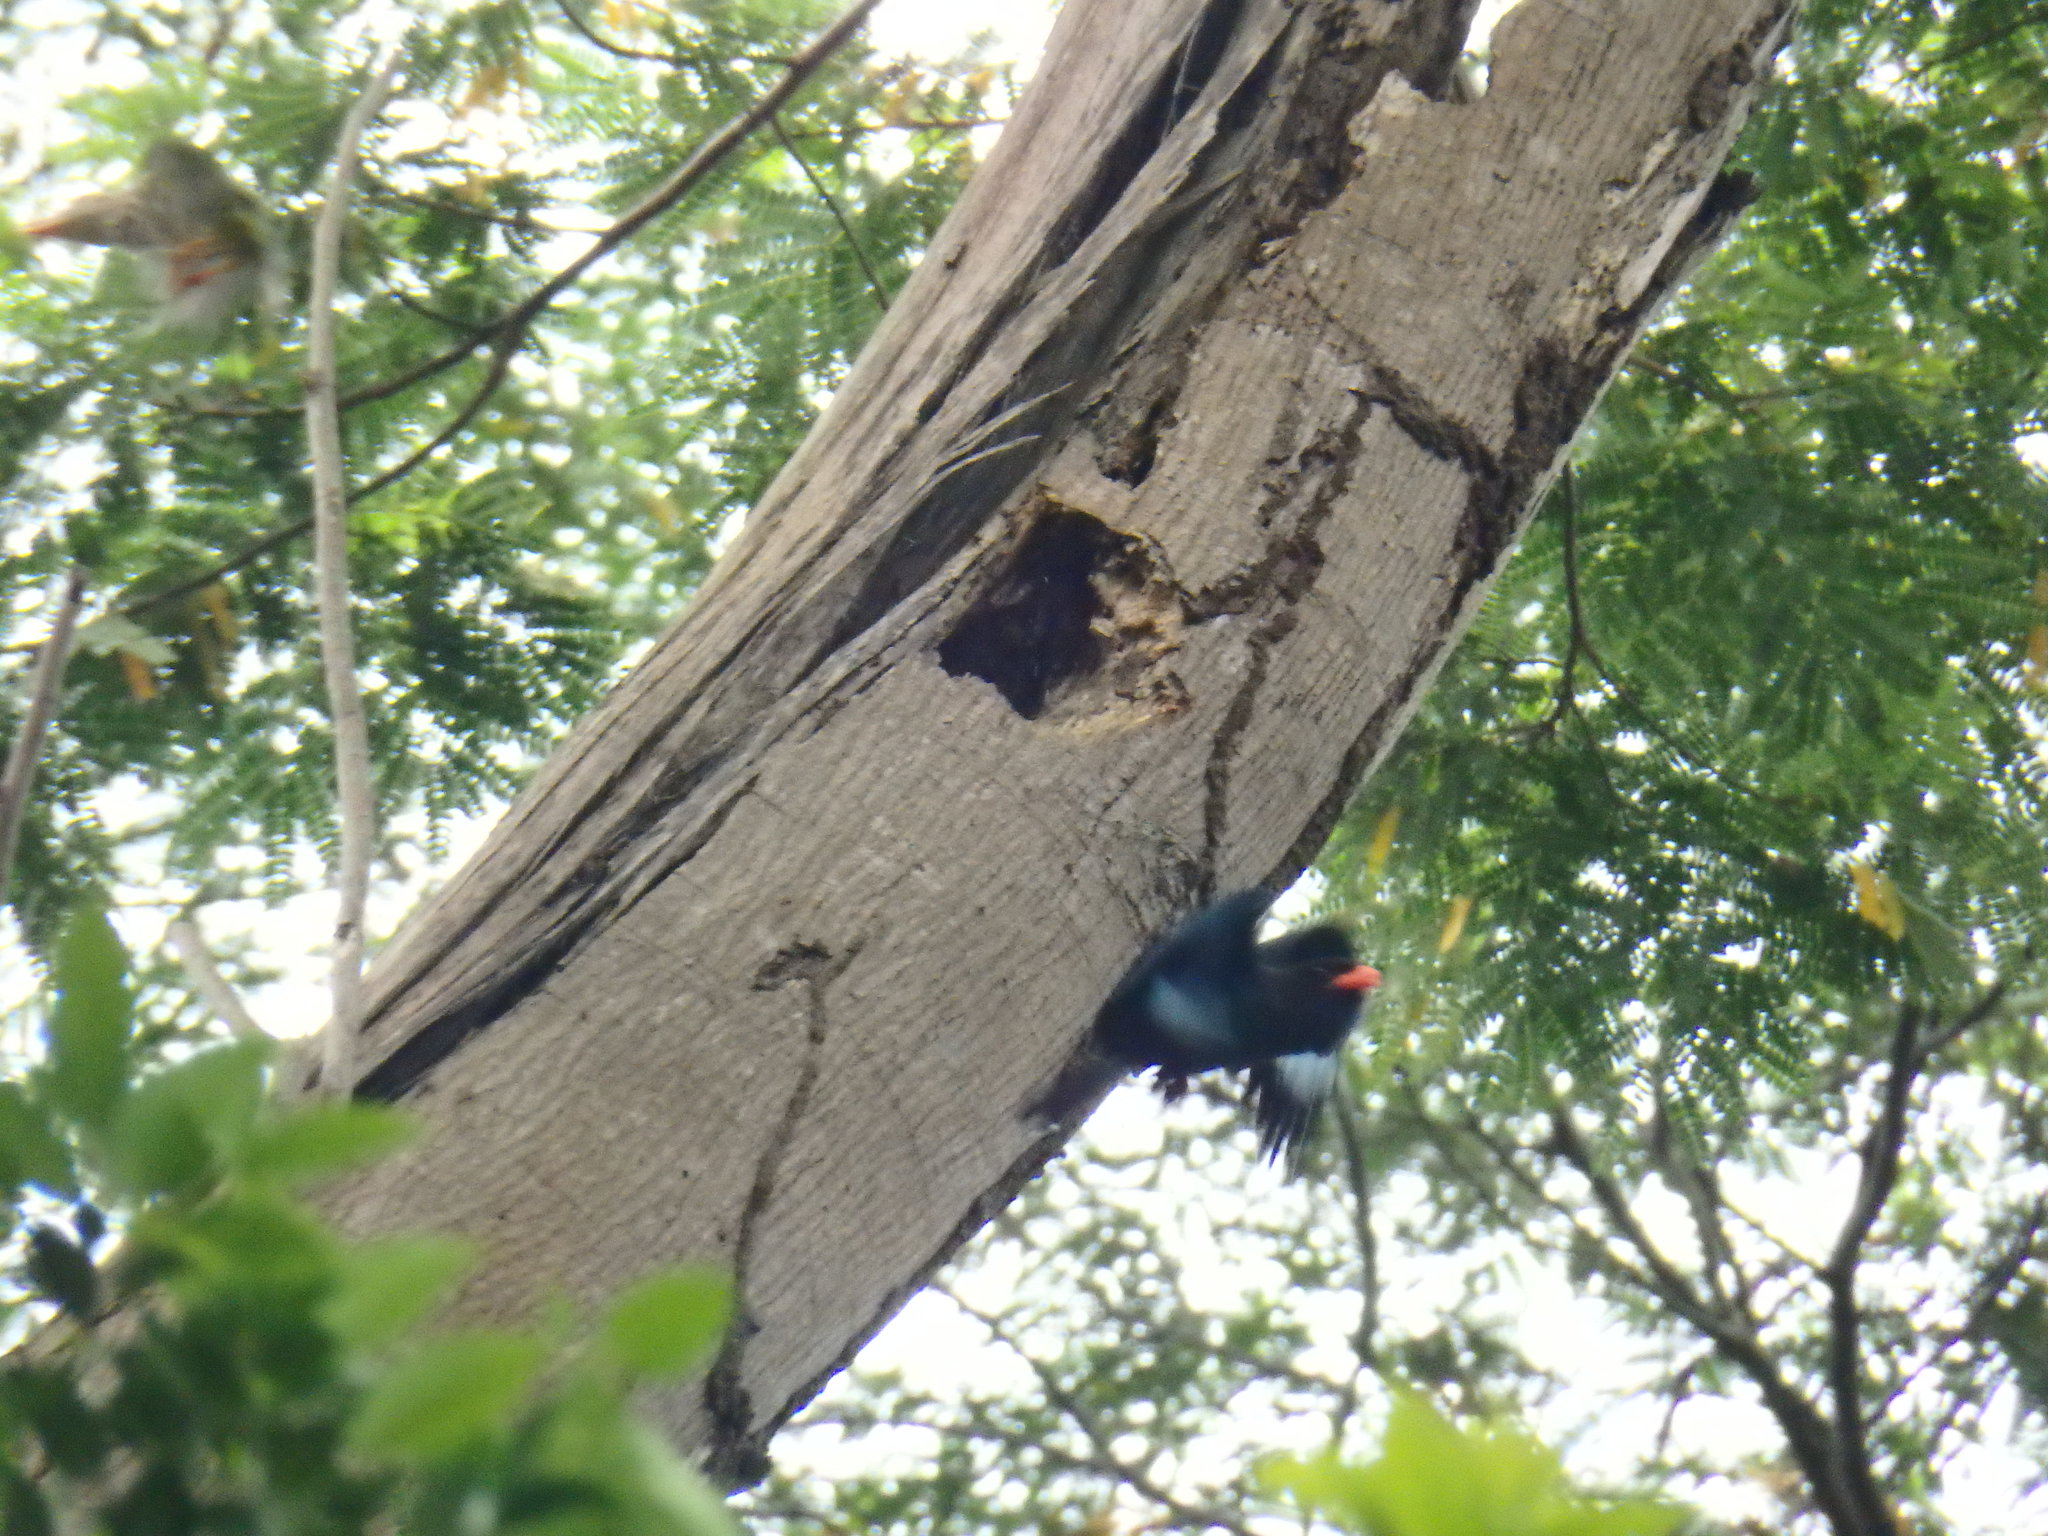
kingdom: Animalia
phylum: Chordata
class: Aves
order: Coraciiformes
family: Coraciidae
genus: Eurystomus
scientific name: Eurystomus orientalis
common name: Oriental dollarbird
